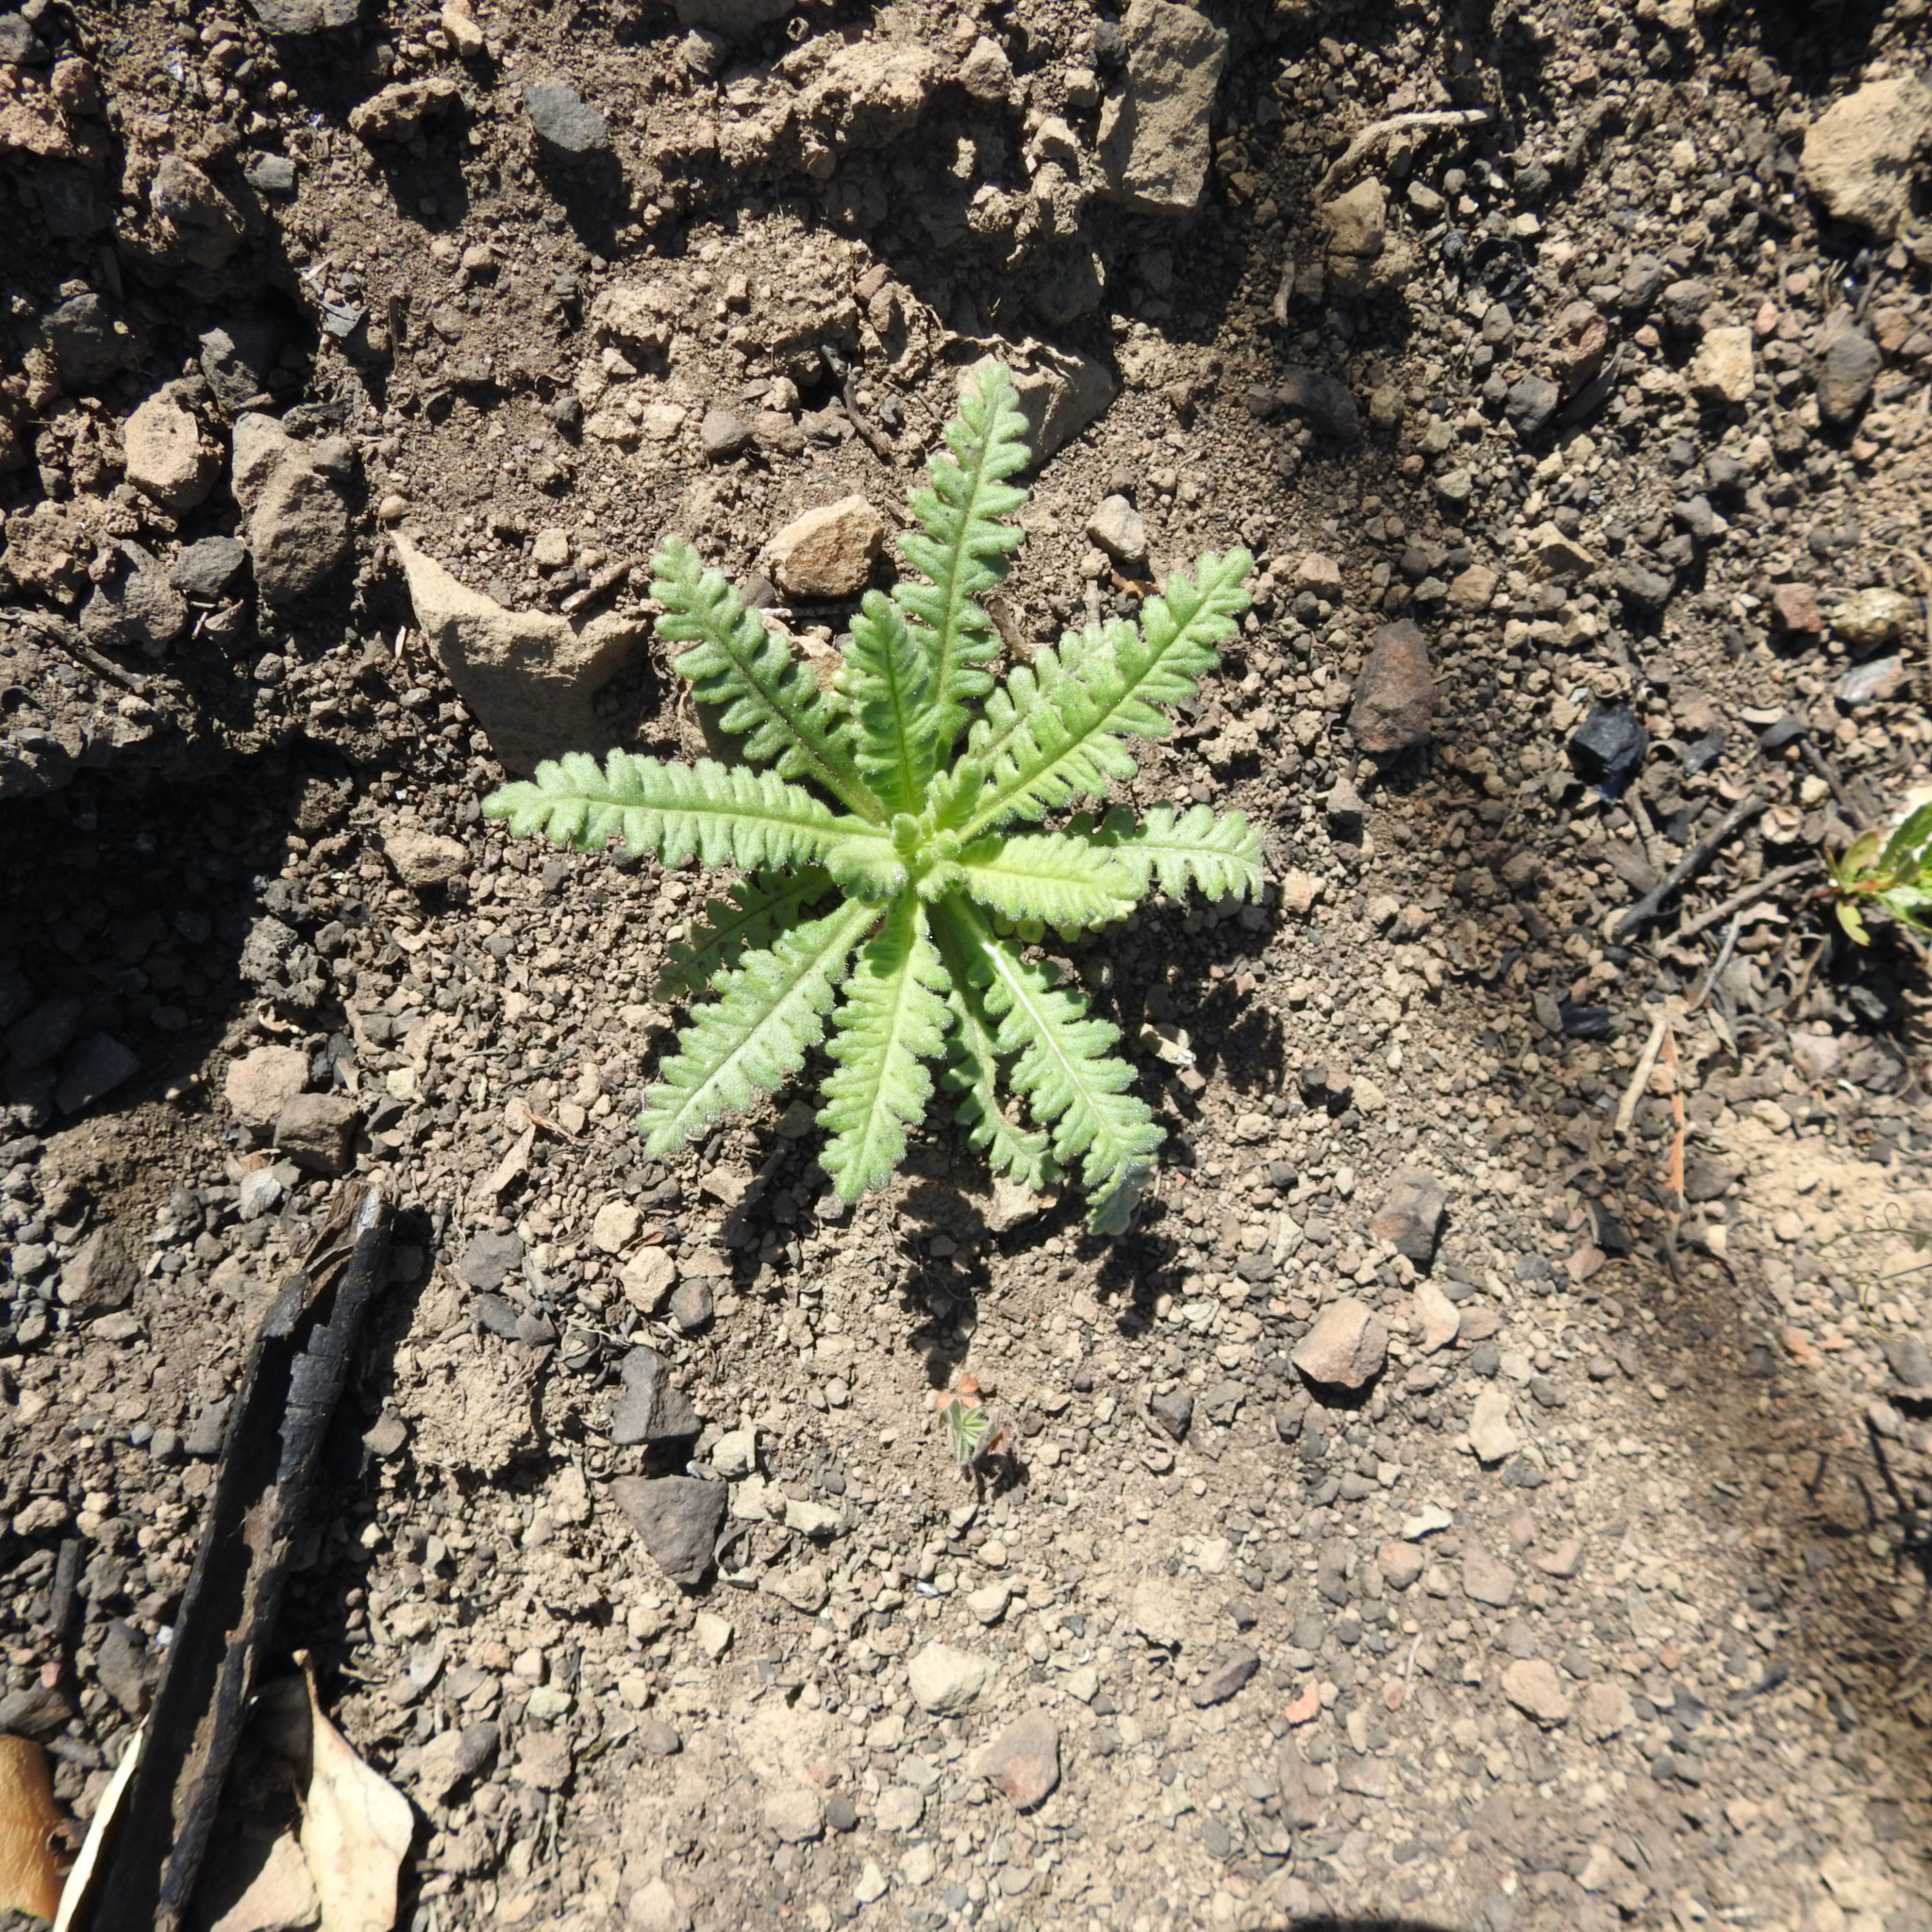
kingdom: Plantae
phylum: Tracheophyta
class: Magnoliopsida
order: Boraginales
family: Hydrophyllaceae
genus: Emmenanthe
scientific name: Emmenanthe penduliflora
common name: Whispering-bells
